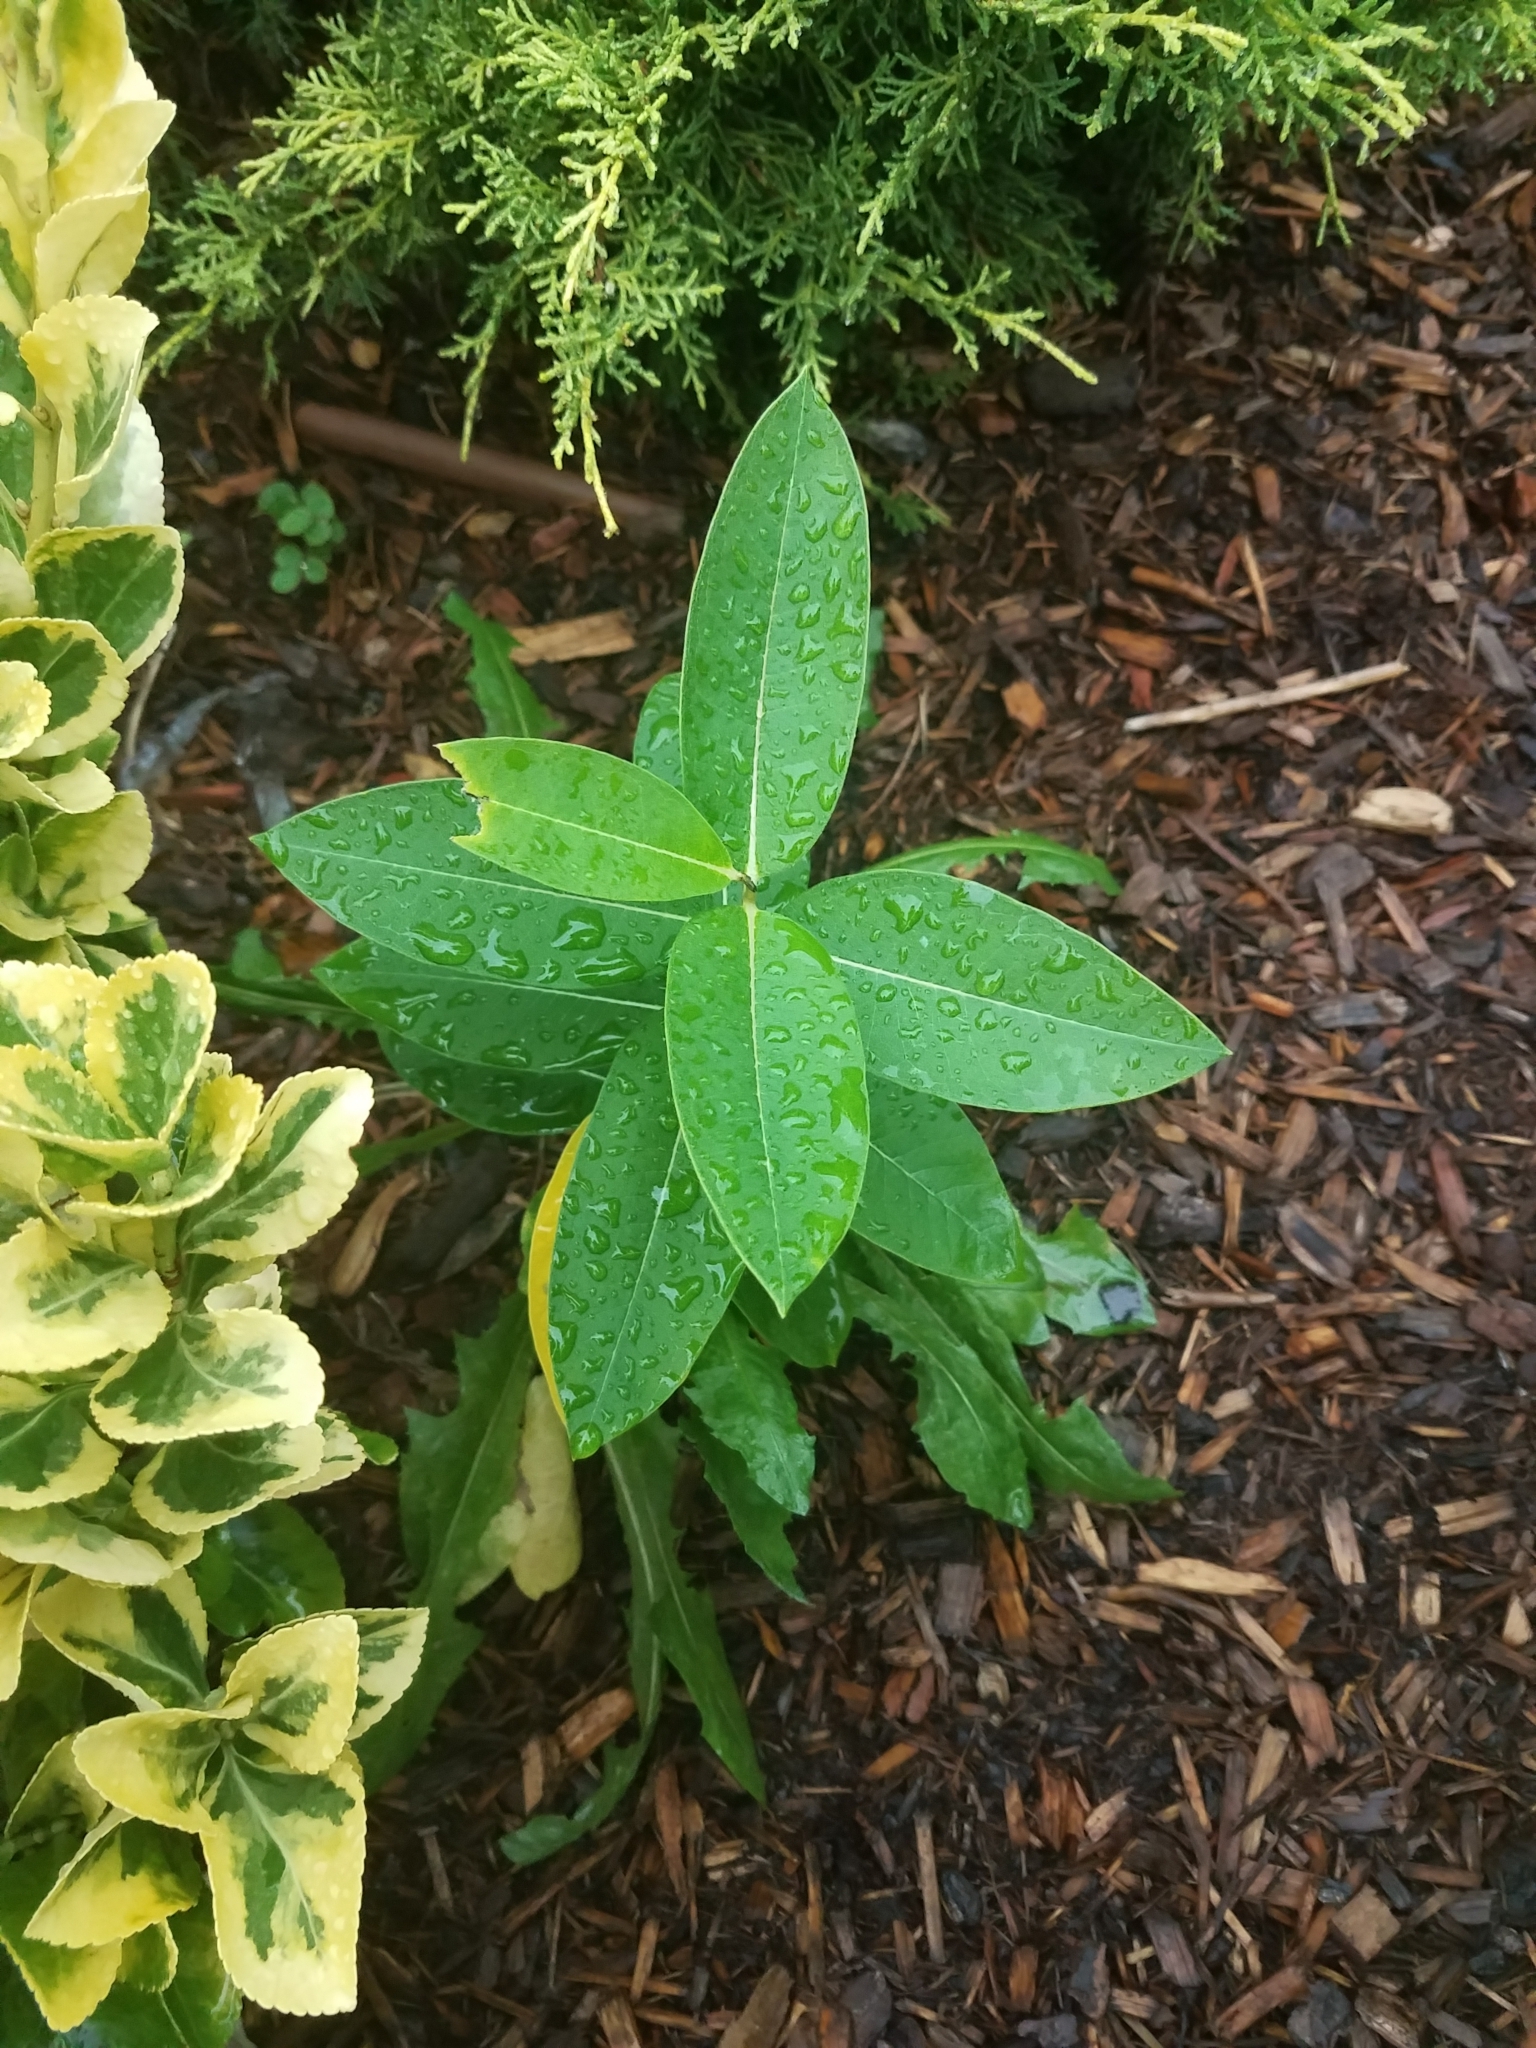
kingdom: Plantae
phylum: Tracheophyta
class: Magnoliopsida
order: Gentianales
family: Apocynaceae
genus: Asclepias
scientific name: Asclepias syriaca
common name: Common milkweed
